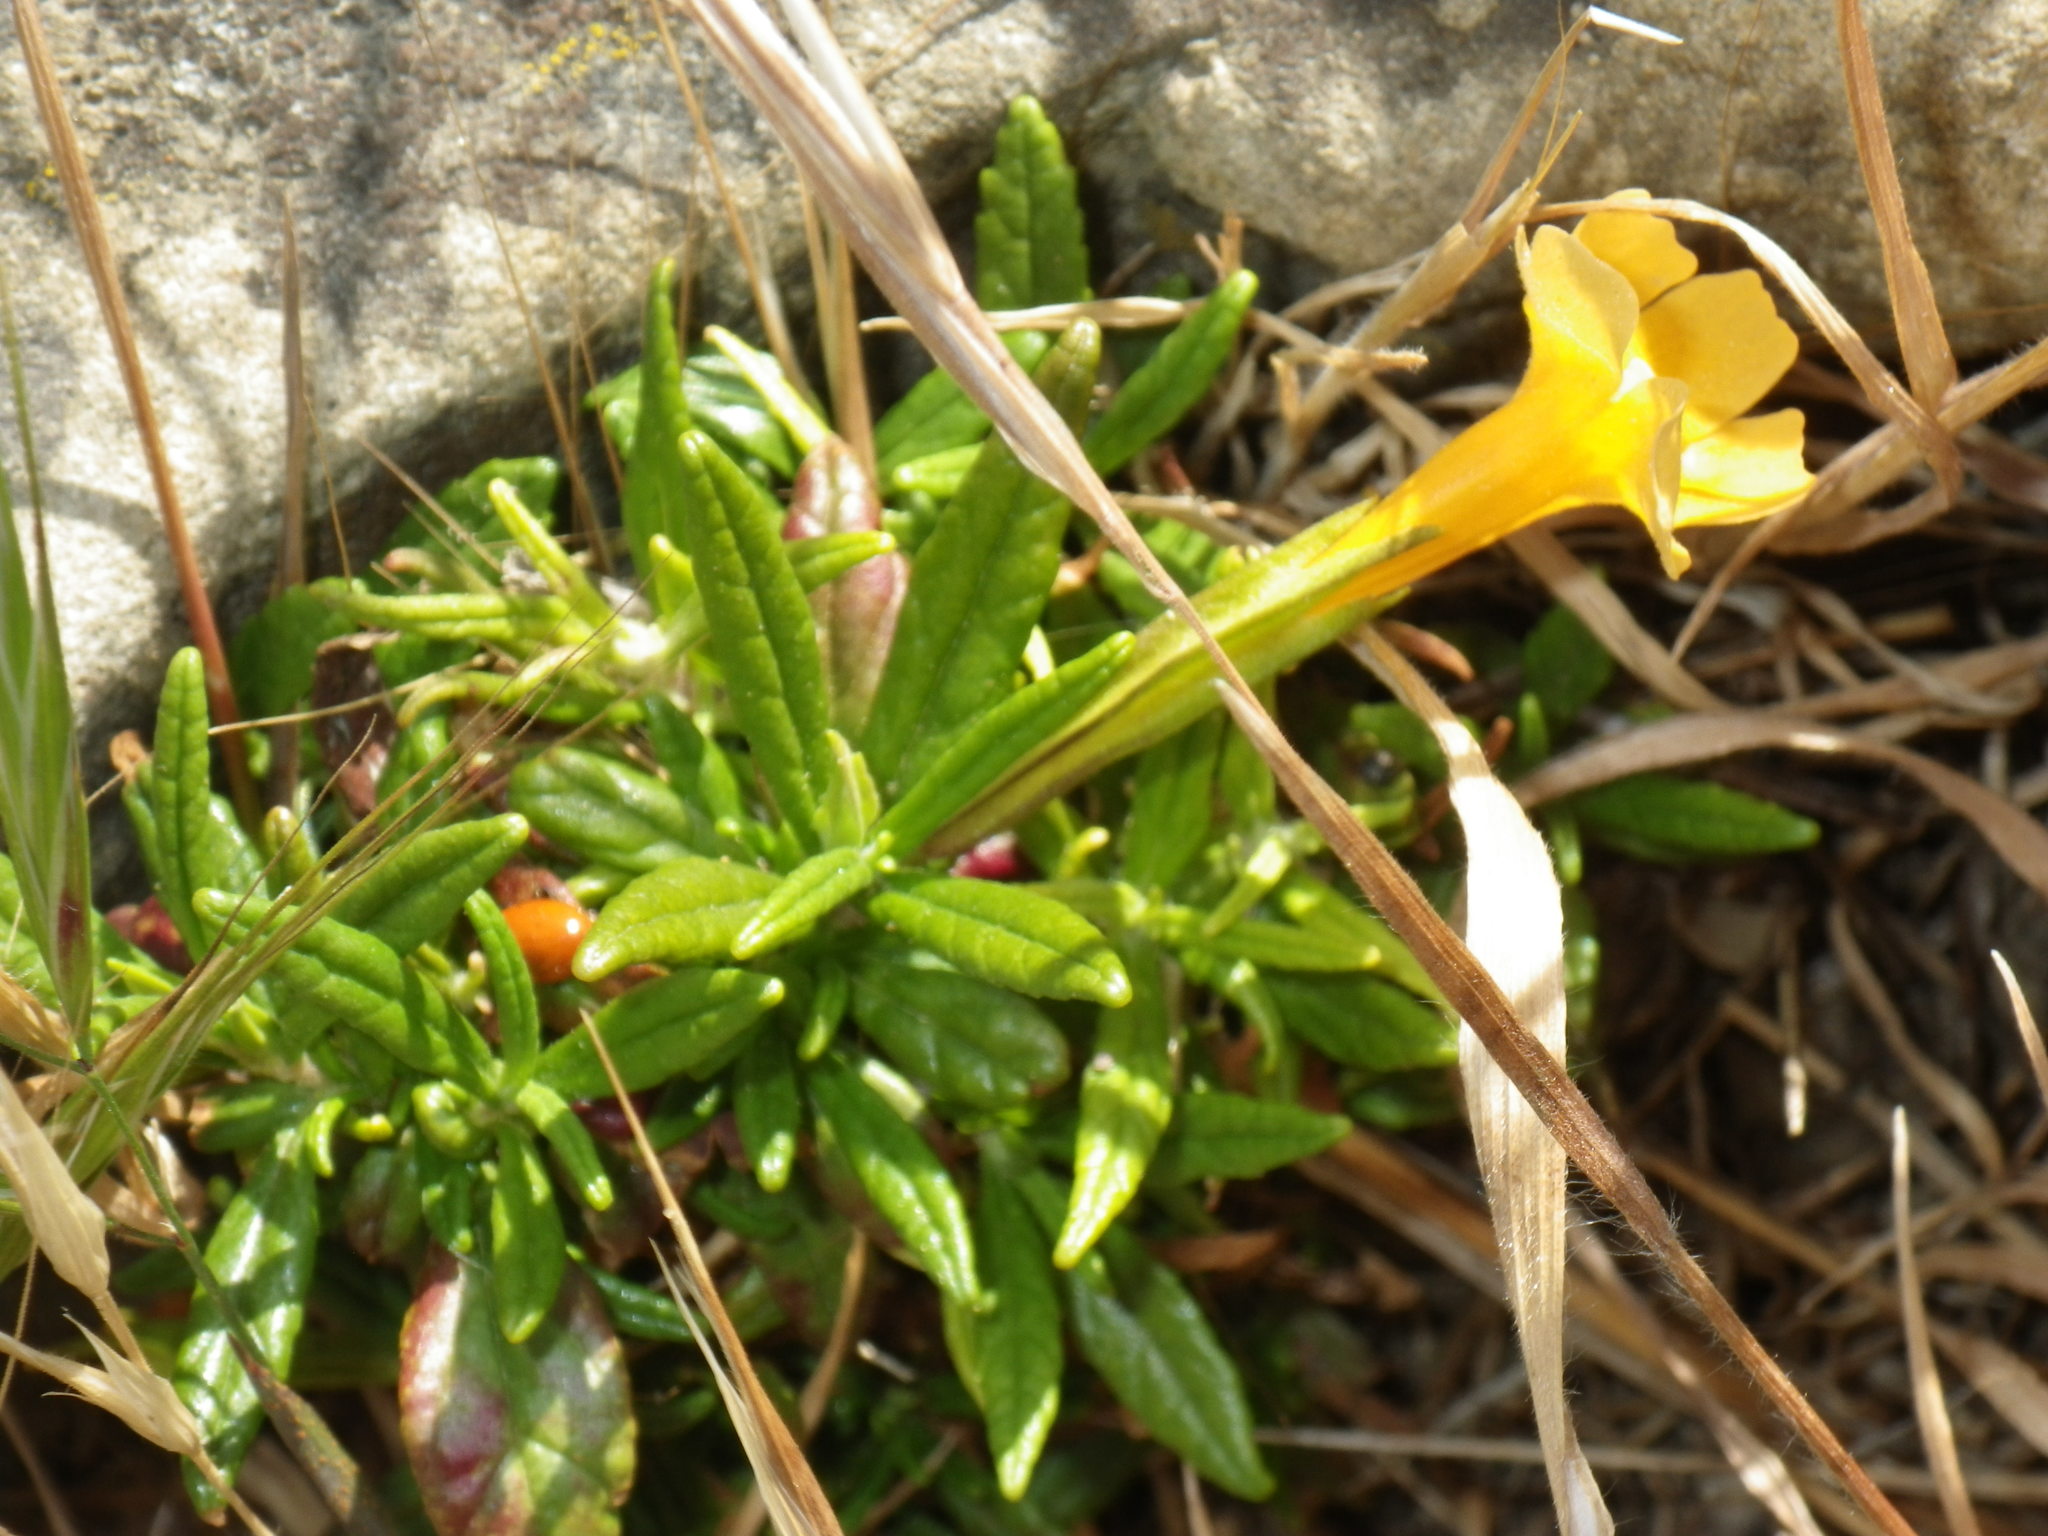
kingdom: Plantae
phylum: Tracheophyta
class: Magnoliopsida
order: Lamiales
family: Phrymaceae
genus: Diplacus
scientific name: Diplacus aurantiacus
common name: Bush monkey-flower
